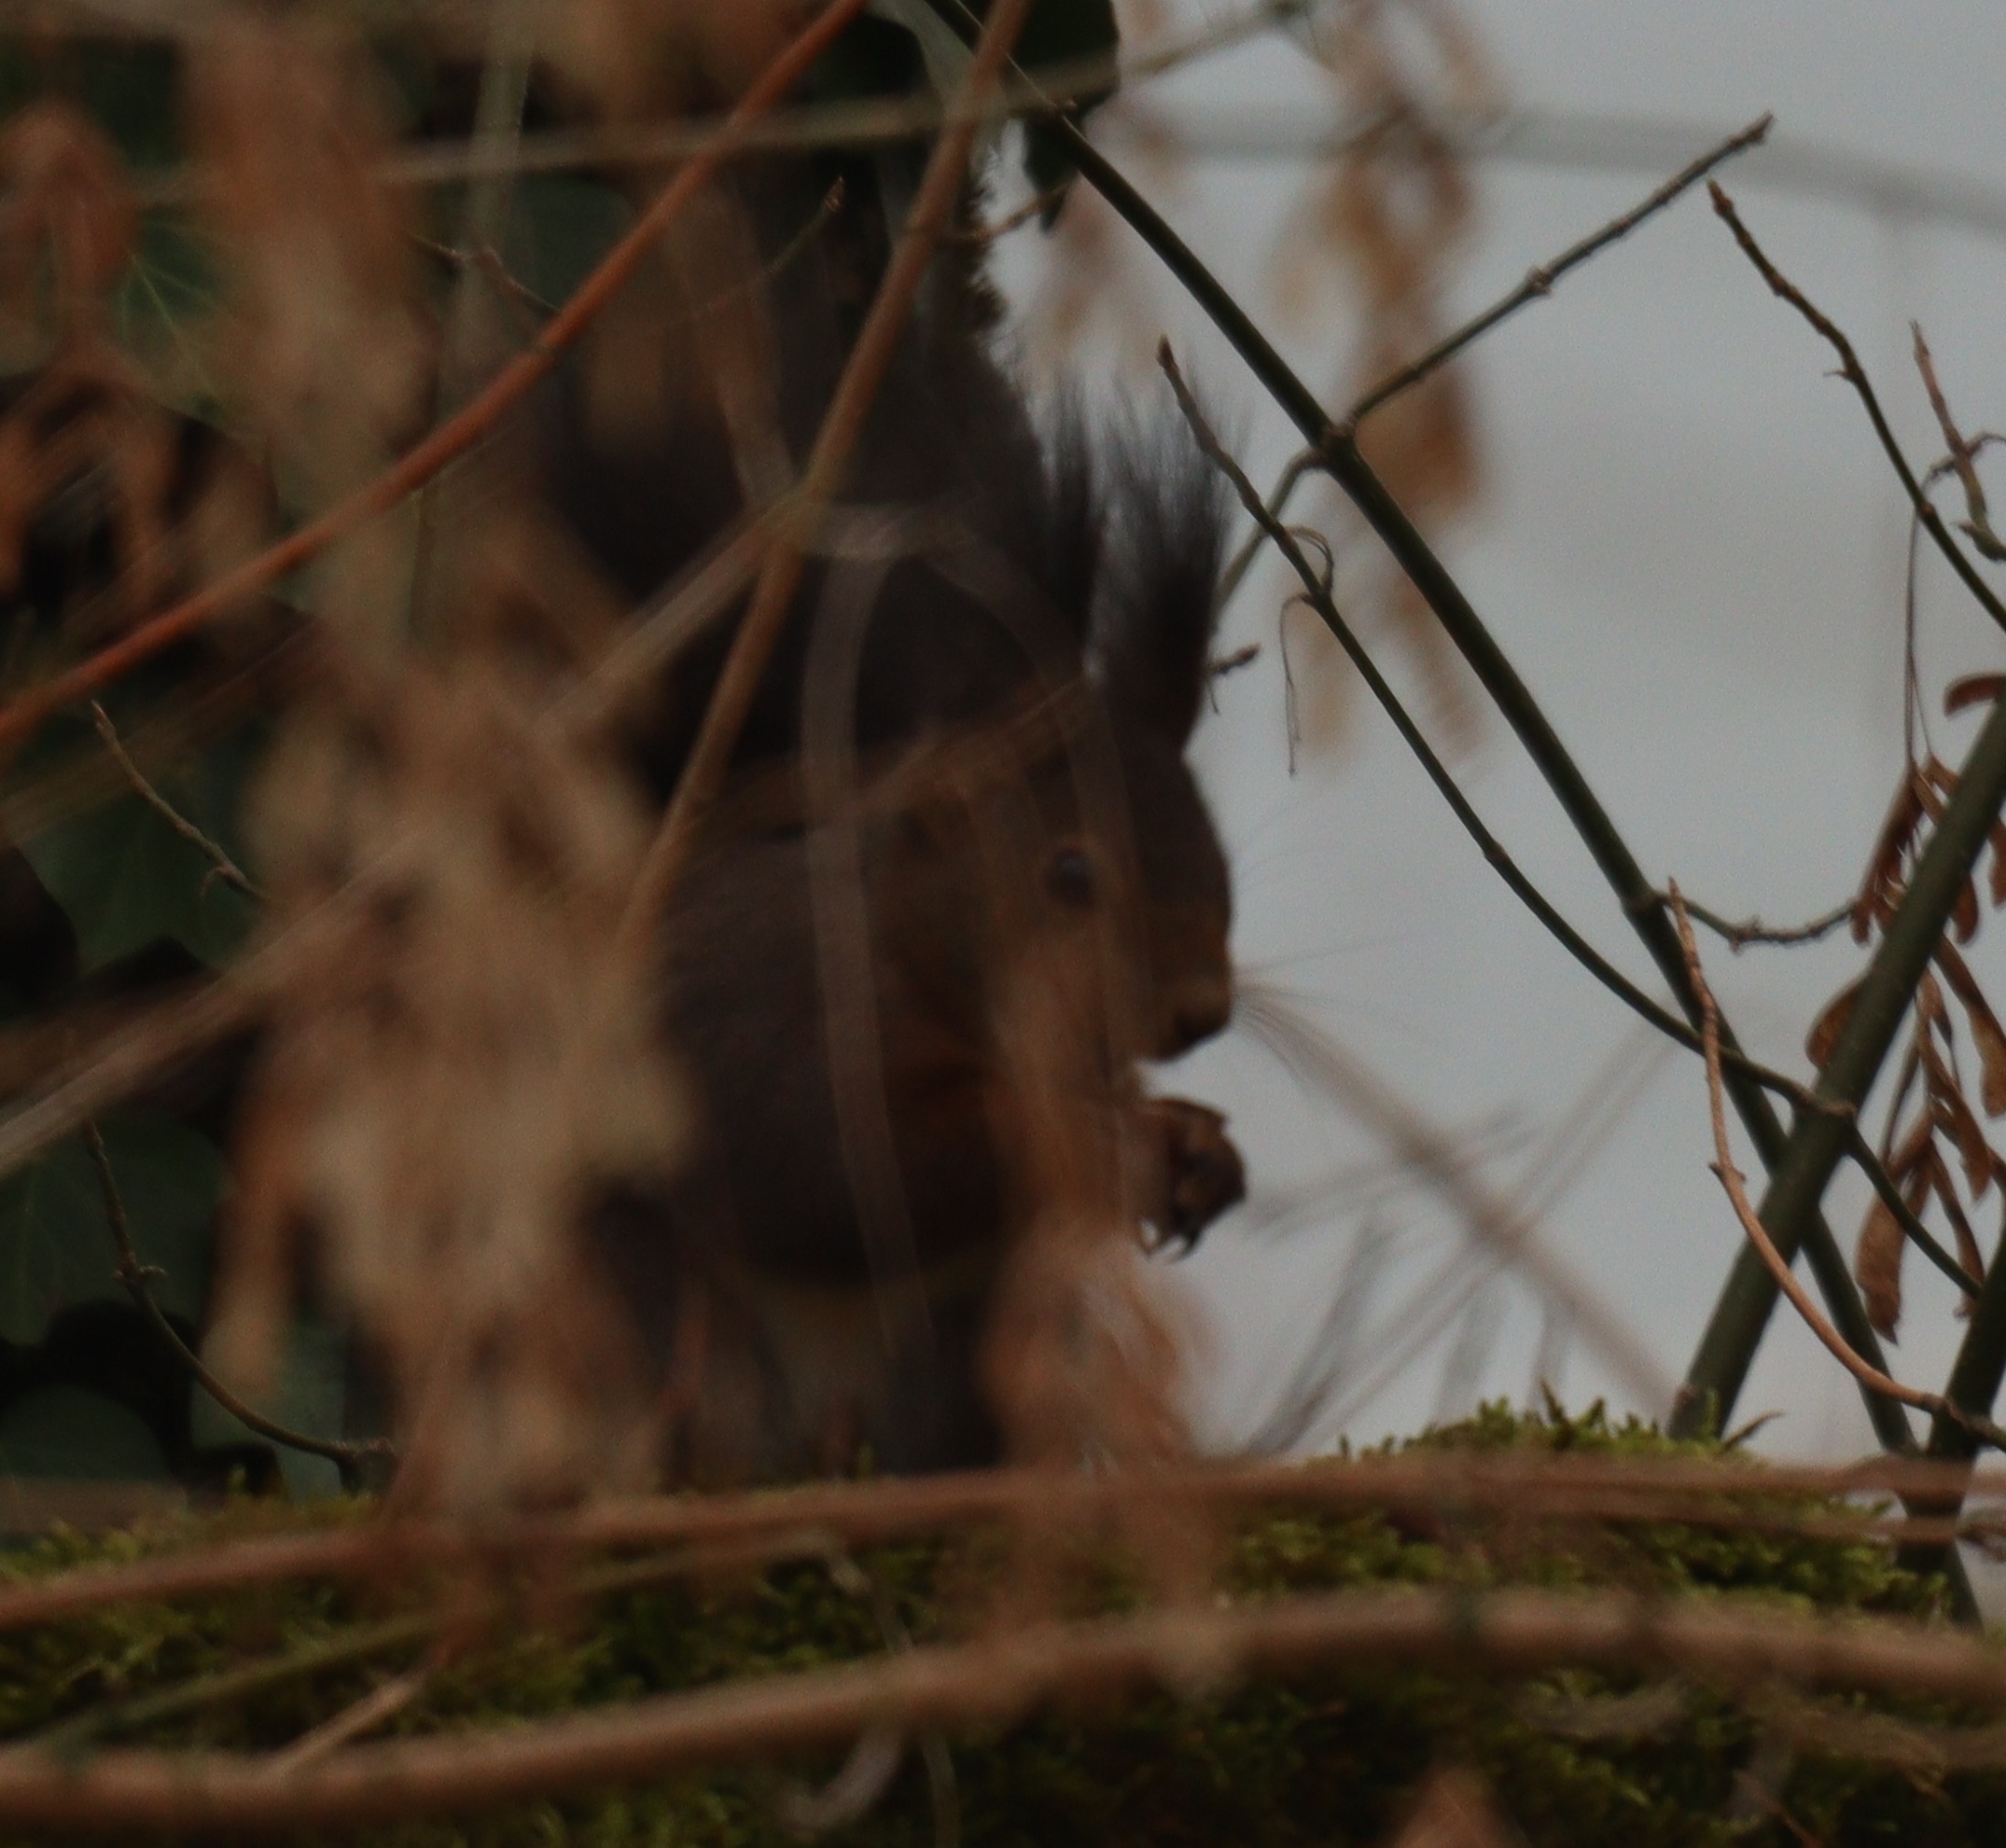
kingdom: Animalia
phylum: Chordata
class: Mammalia
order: Rodentia
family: Sciuridae
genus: Sciurus
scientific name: Sciurus vulgaris
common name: Eurasian red squirrel
